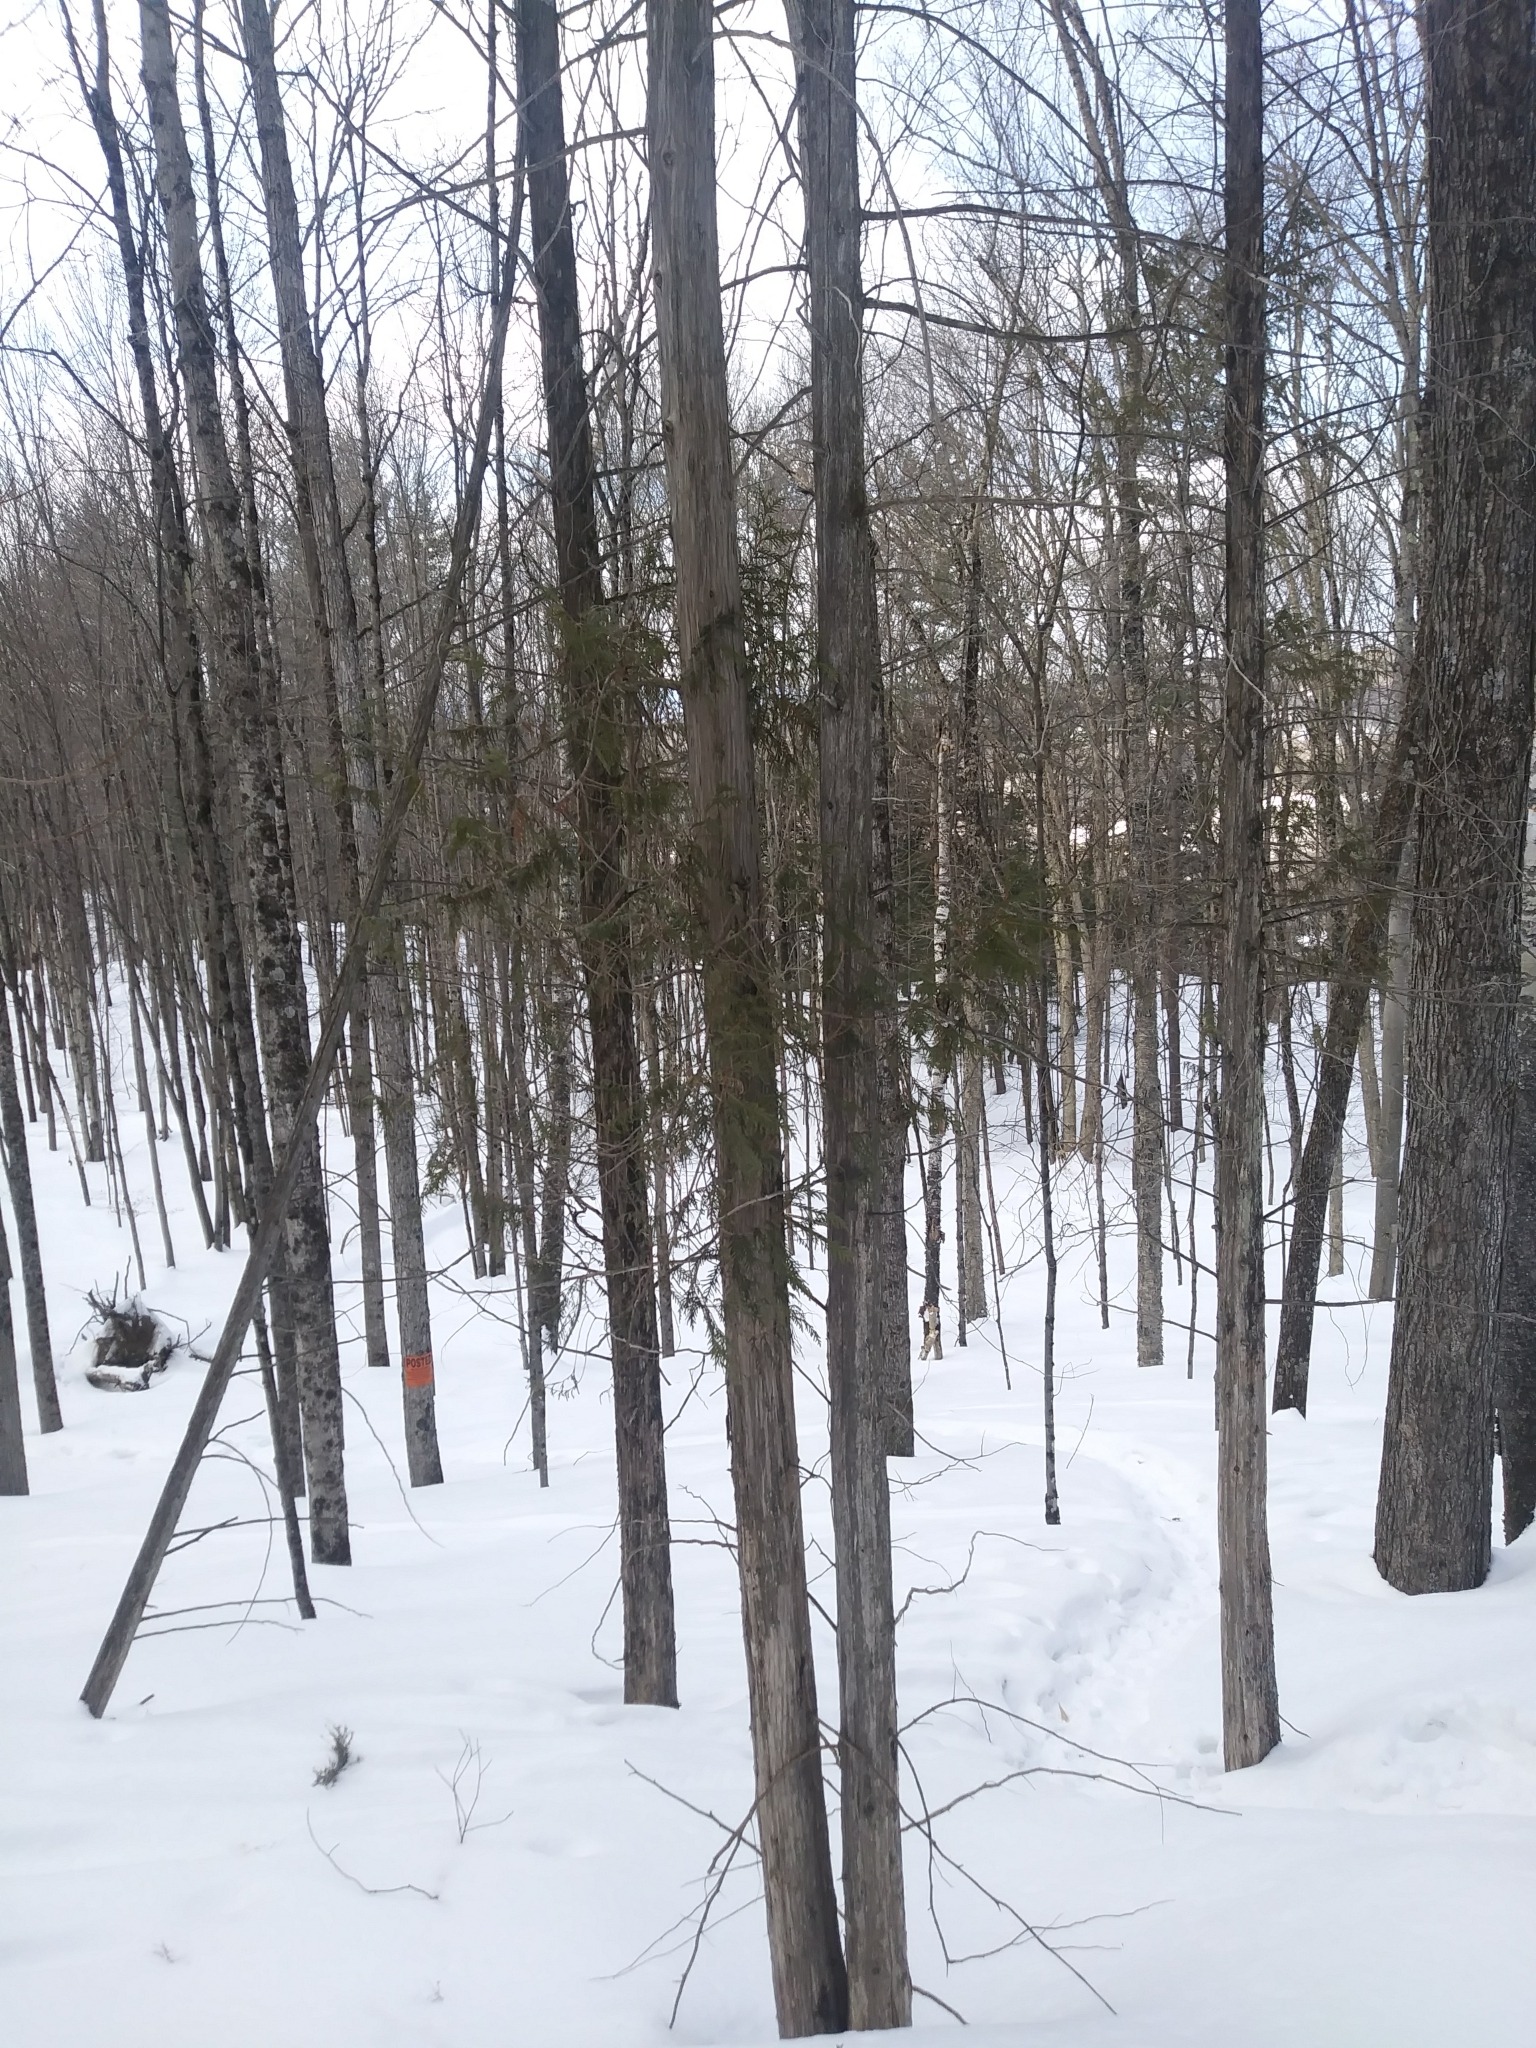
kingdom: Plantae
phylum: Tracheophyta
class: Pinopsida
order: Pinales
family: Cupressaceae
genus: Thuja
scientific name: Thuja occidentalis
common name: Northern white-cedar
